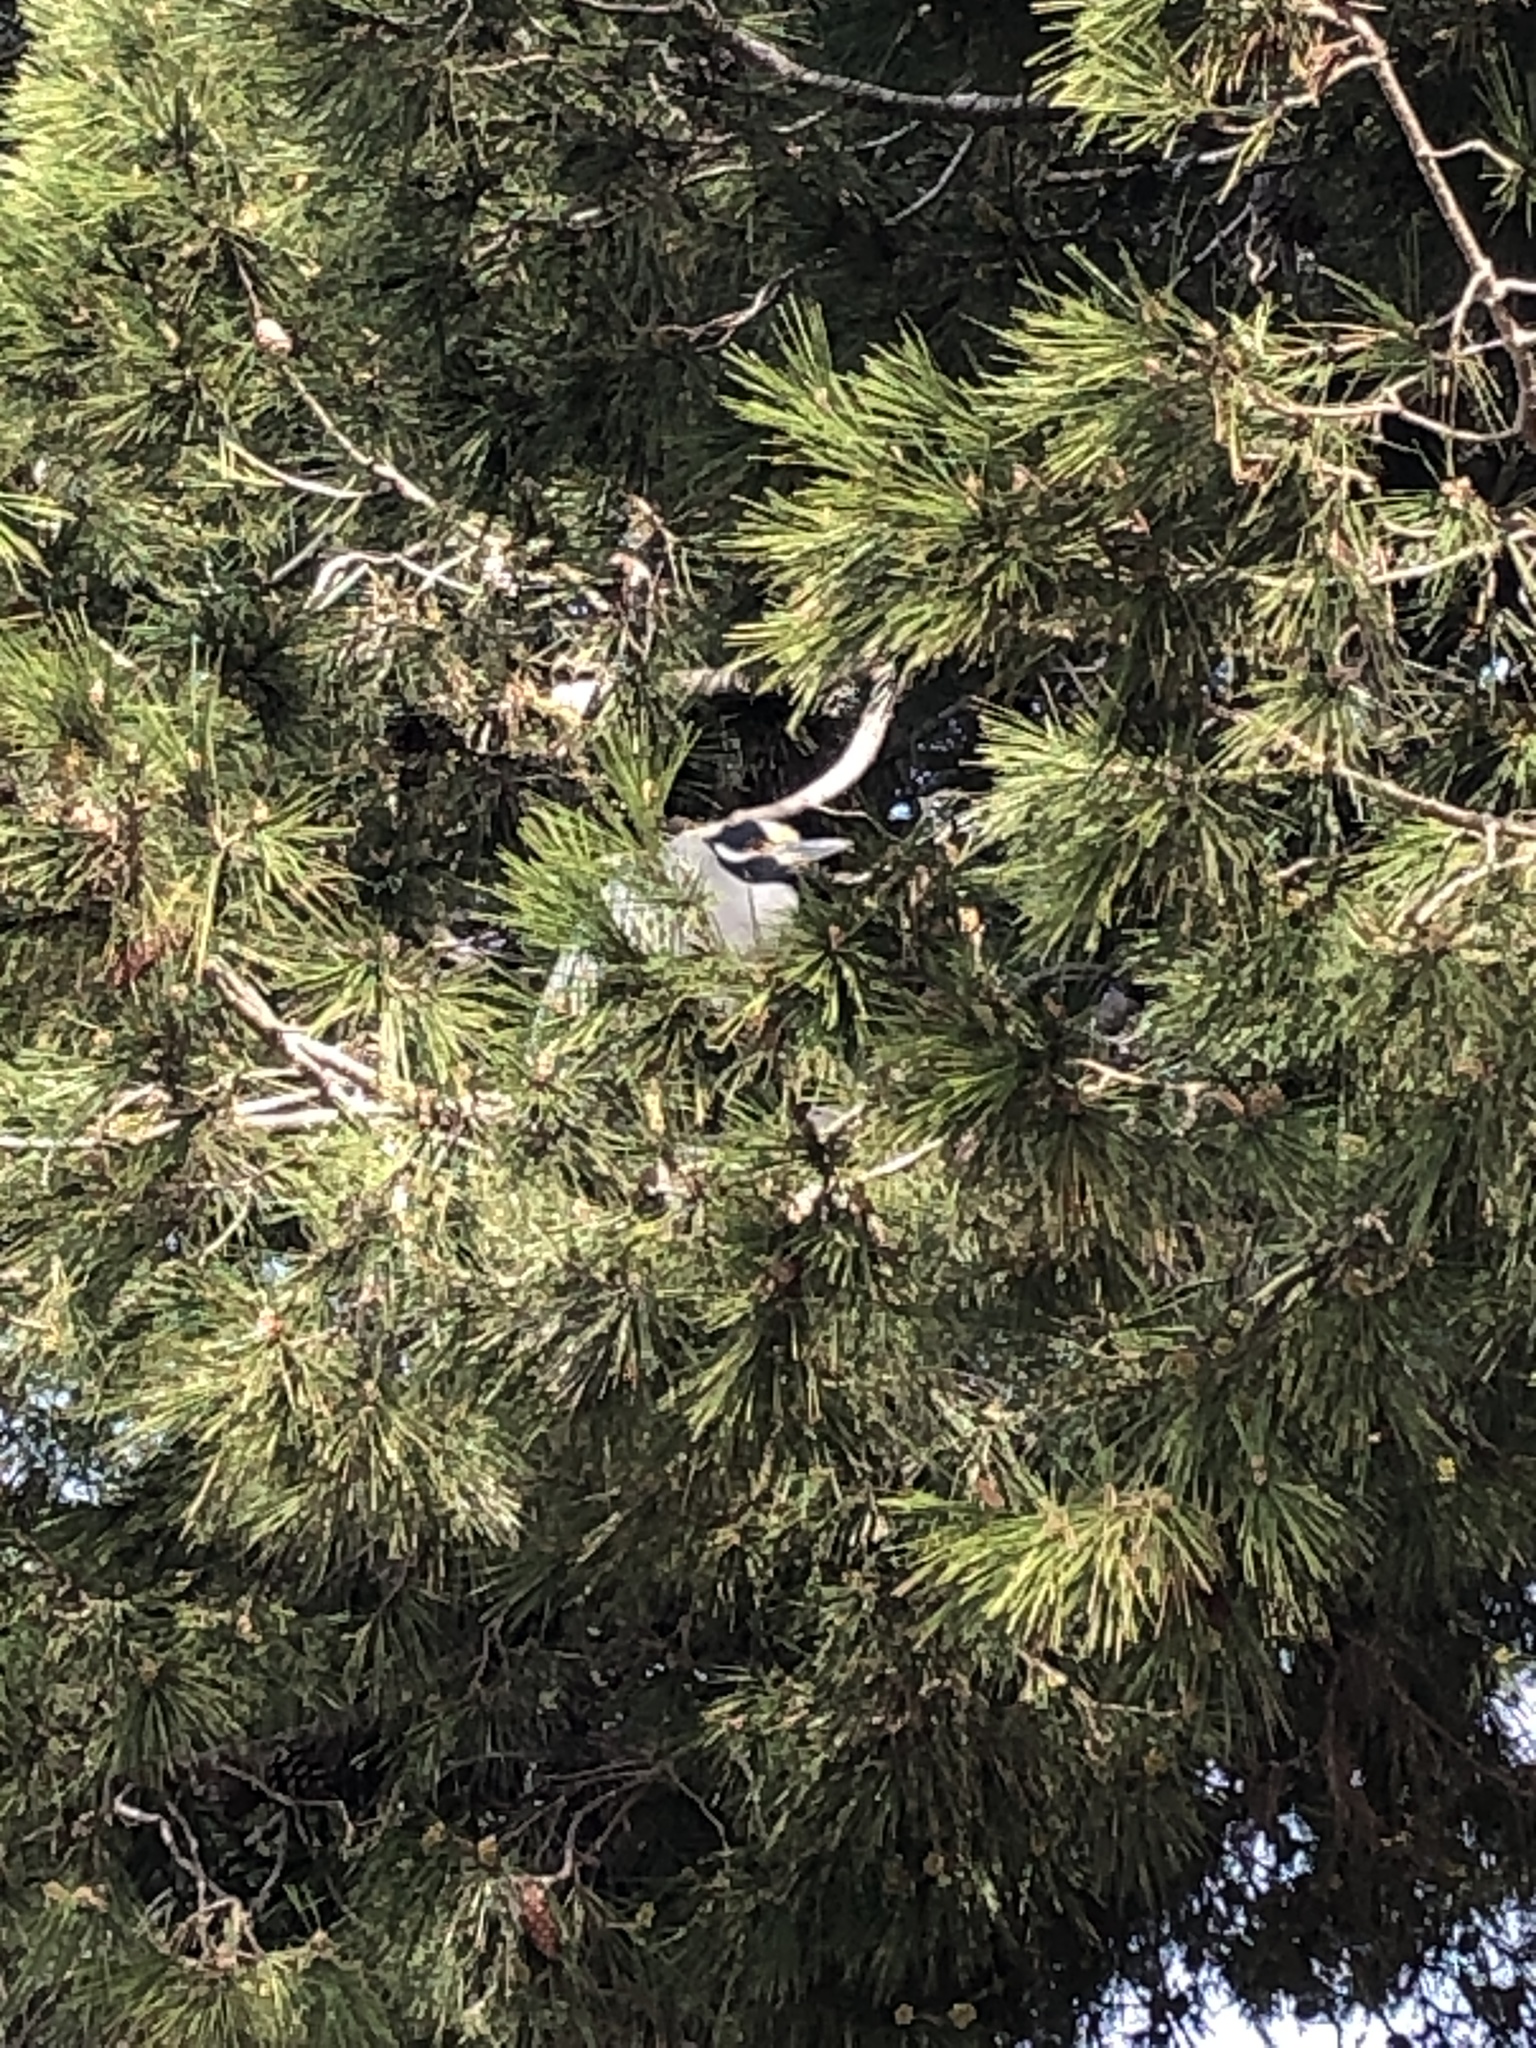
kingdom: Animalia
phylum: Chordata
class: Aves
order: Pelecaniformes
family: Ardeidae
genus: Nyctanassa
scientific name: Nyctanassa violacea
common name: Yellow-crowned night heron
